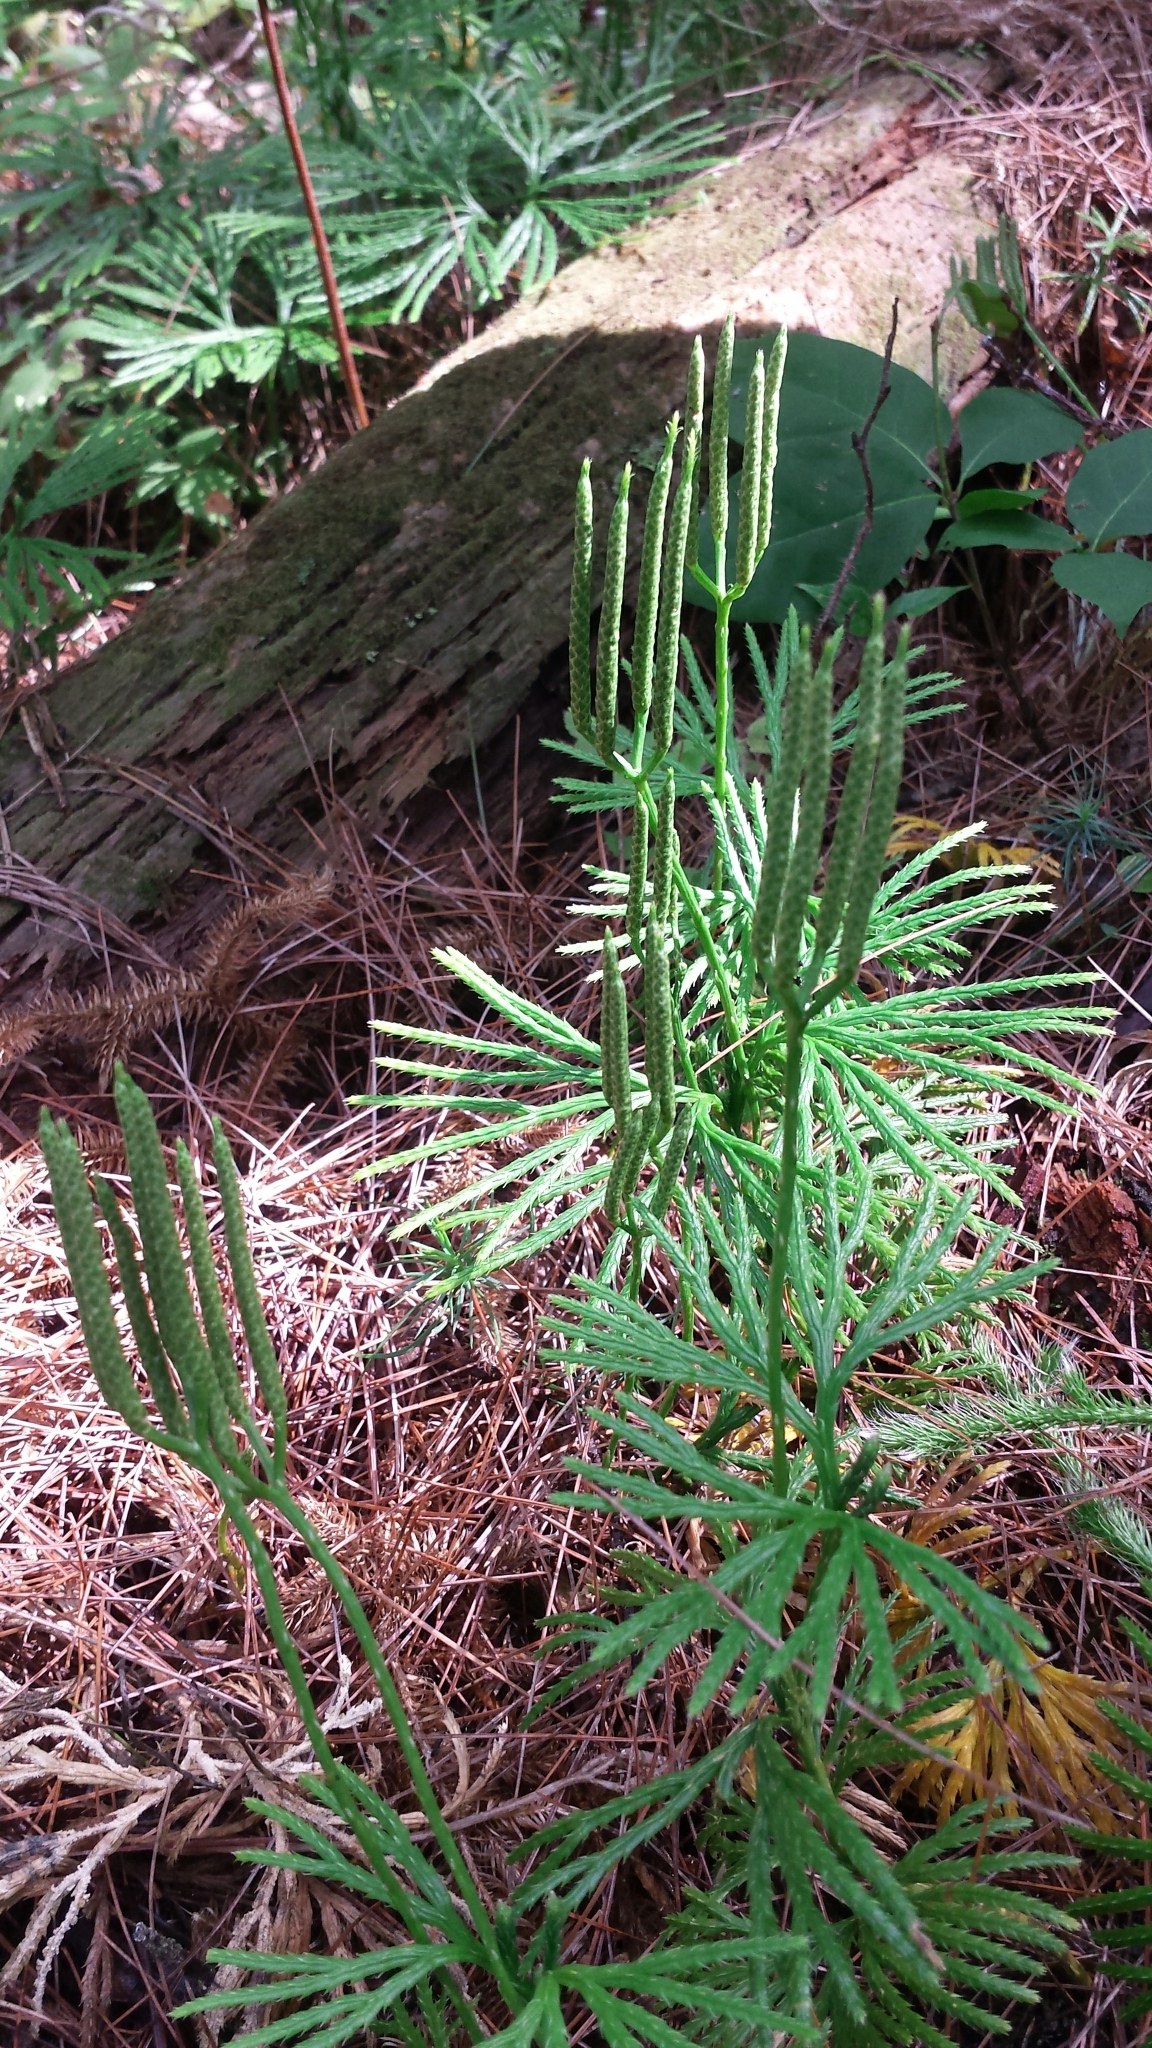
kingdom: Plantae
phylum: Tracheophyta
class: Lycopodiopsida
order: Lycopodiales
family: Lycopodiaceae
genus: Diphasiastrum
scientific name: Diphasiastrum digitatum
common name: Southern running-pine
